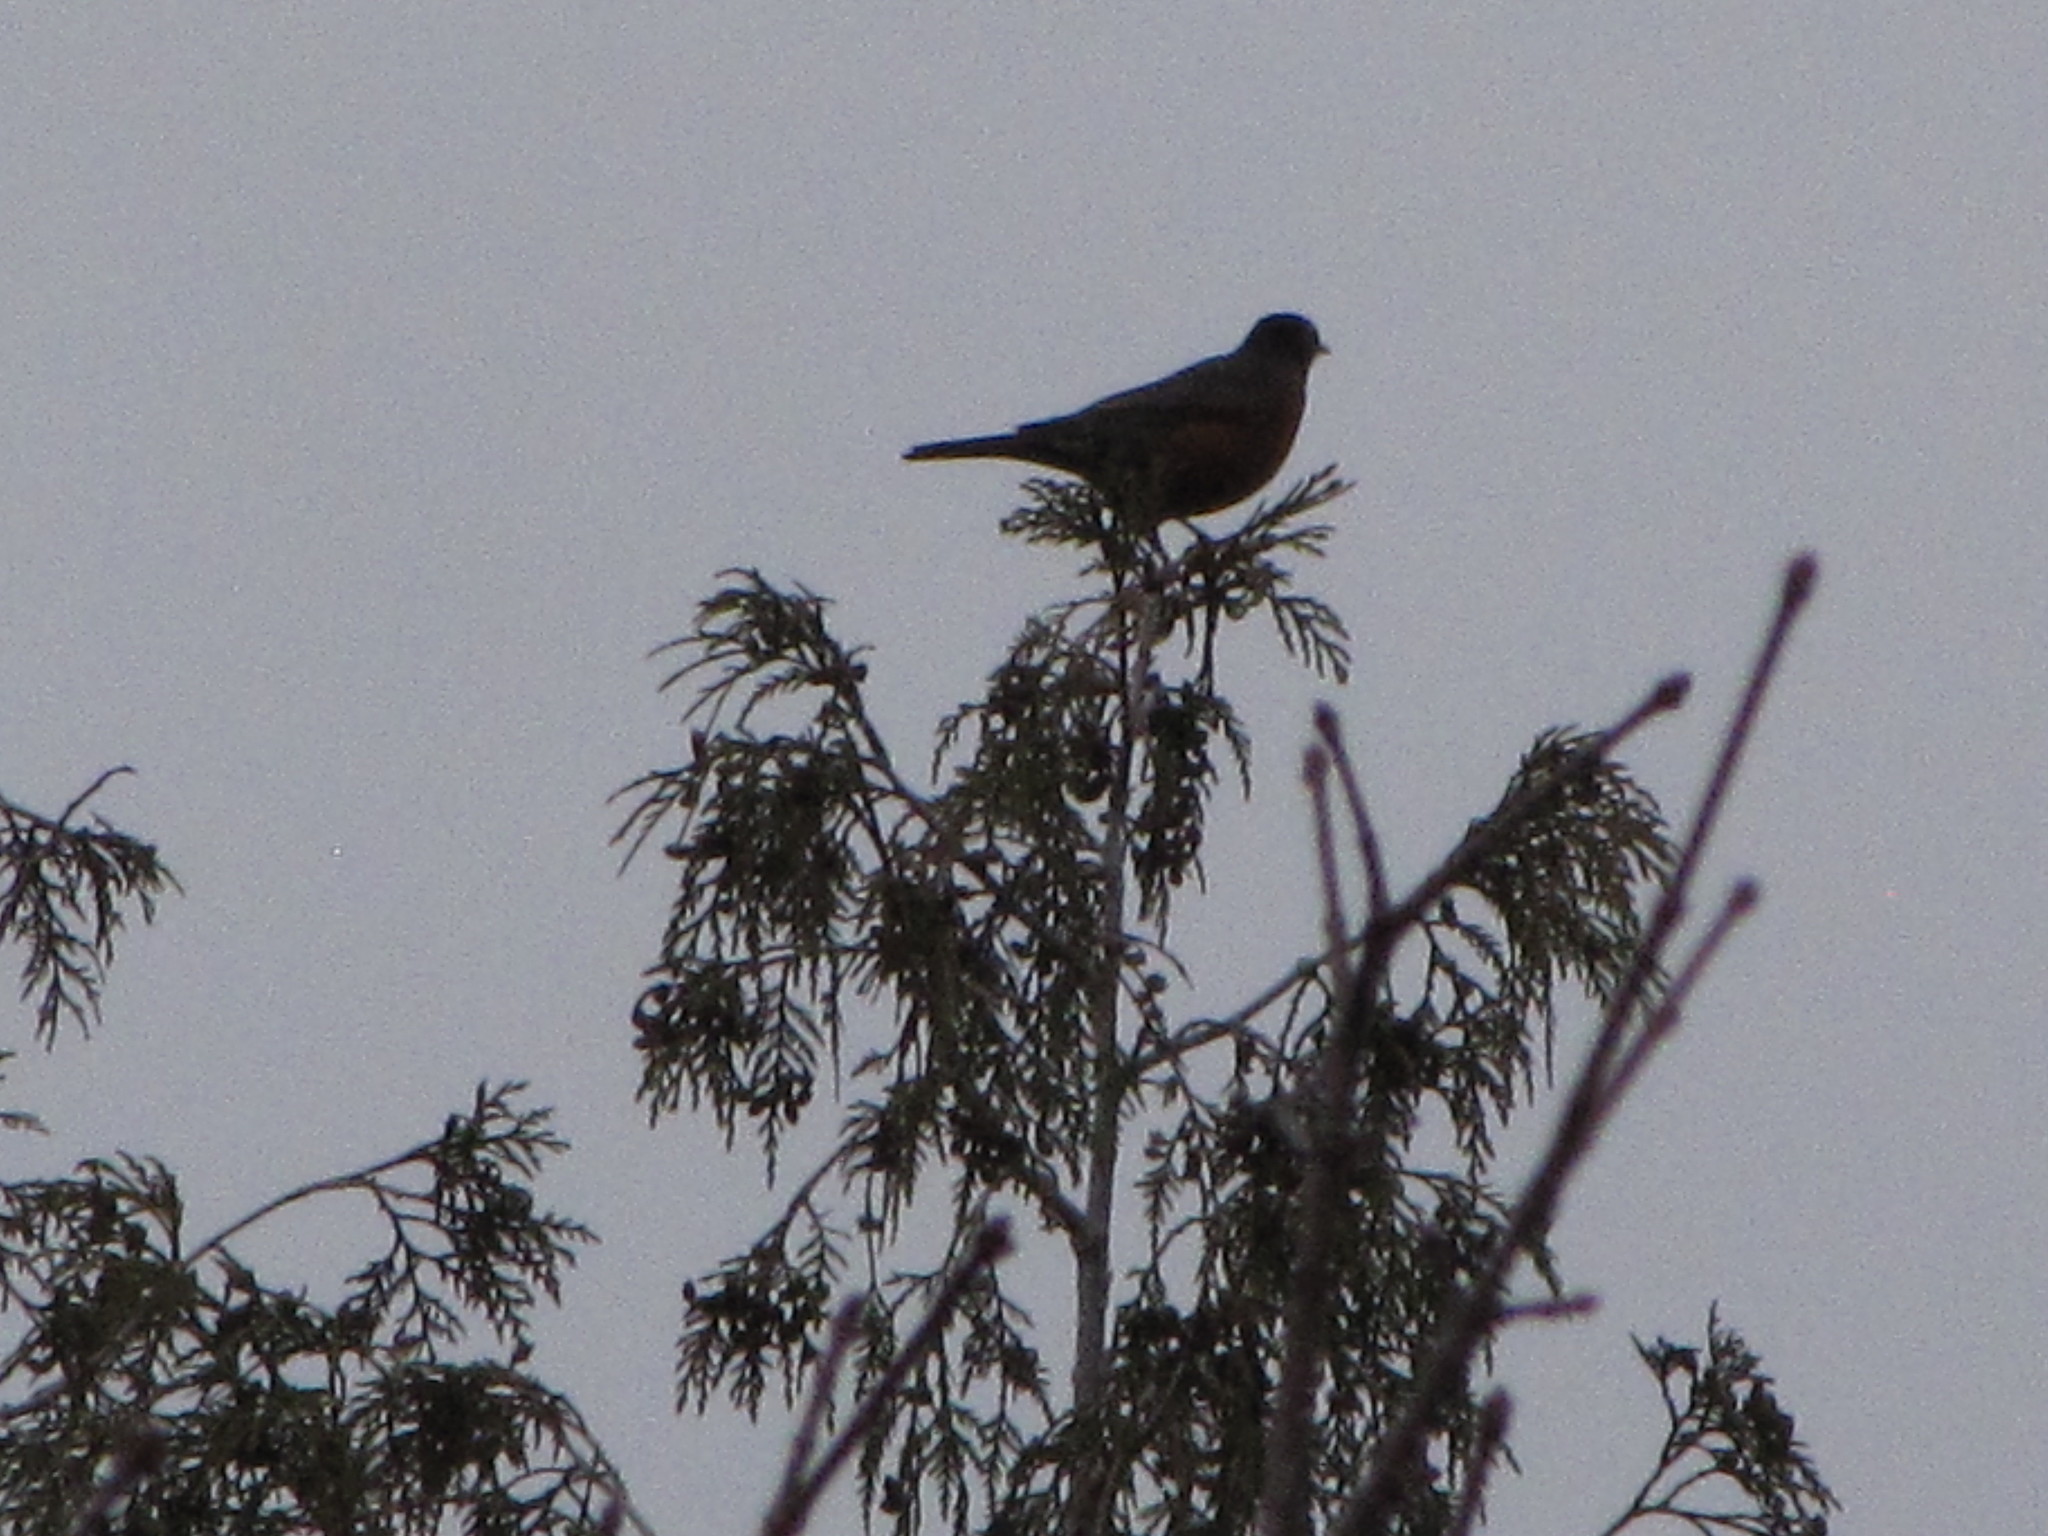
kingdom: Animalia
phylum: Chordata
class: Aves
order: Passeriformes
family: Turdidae
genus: Turdus
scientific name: Turdus migratorius
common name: American robin
